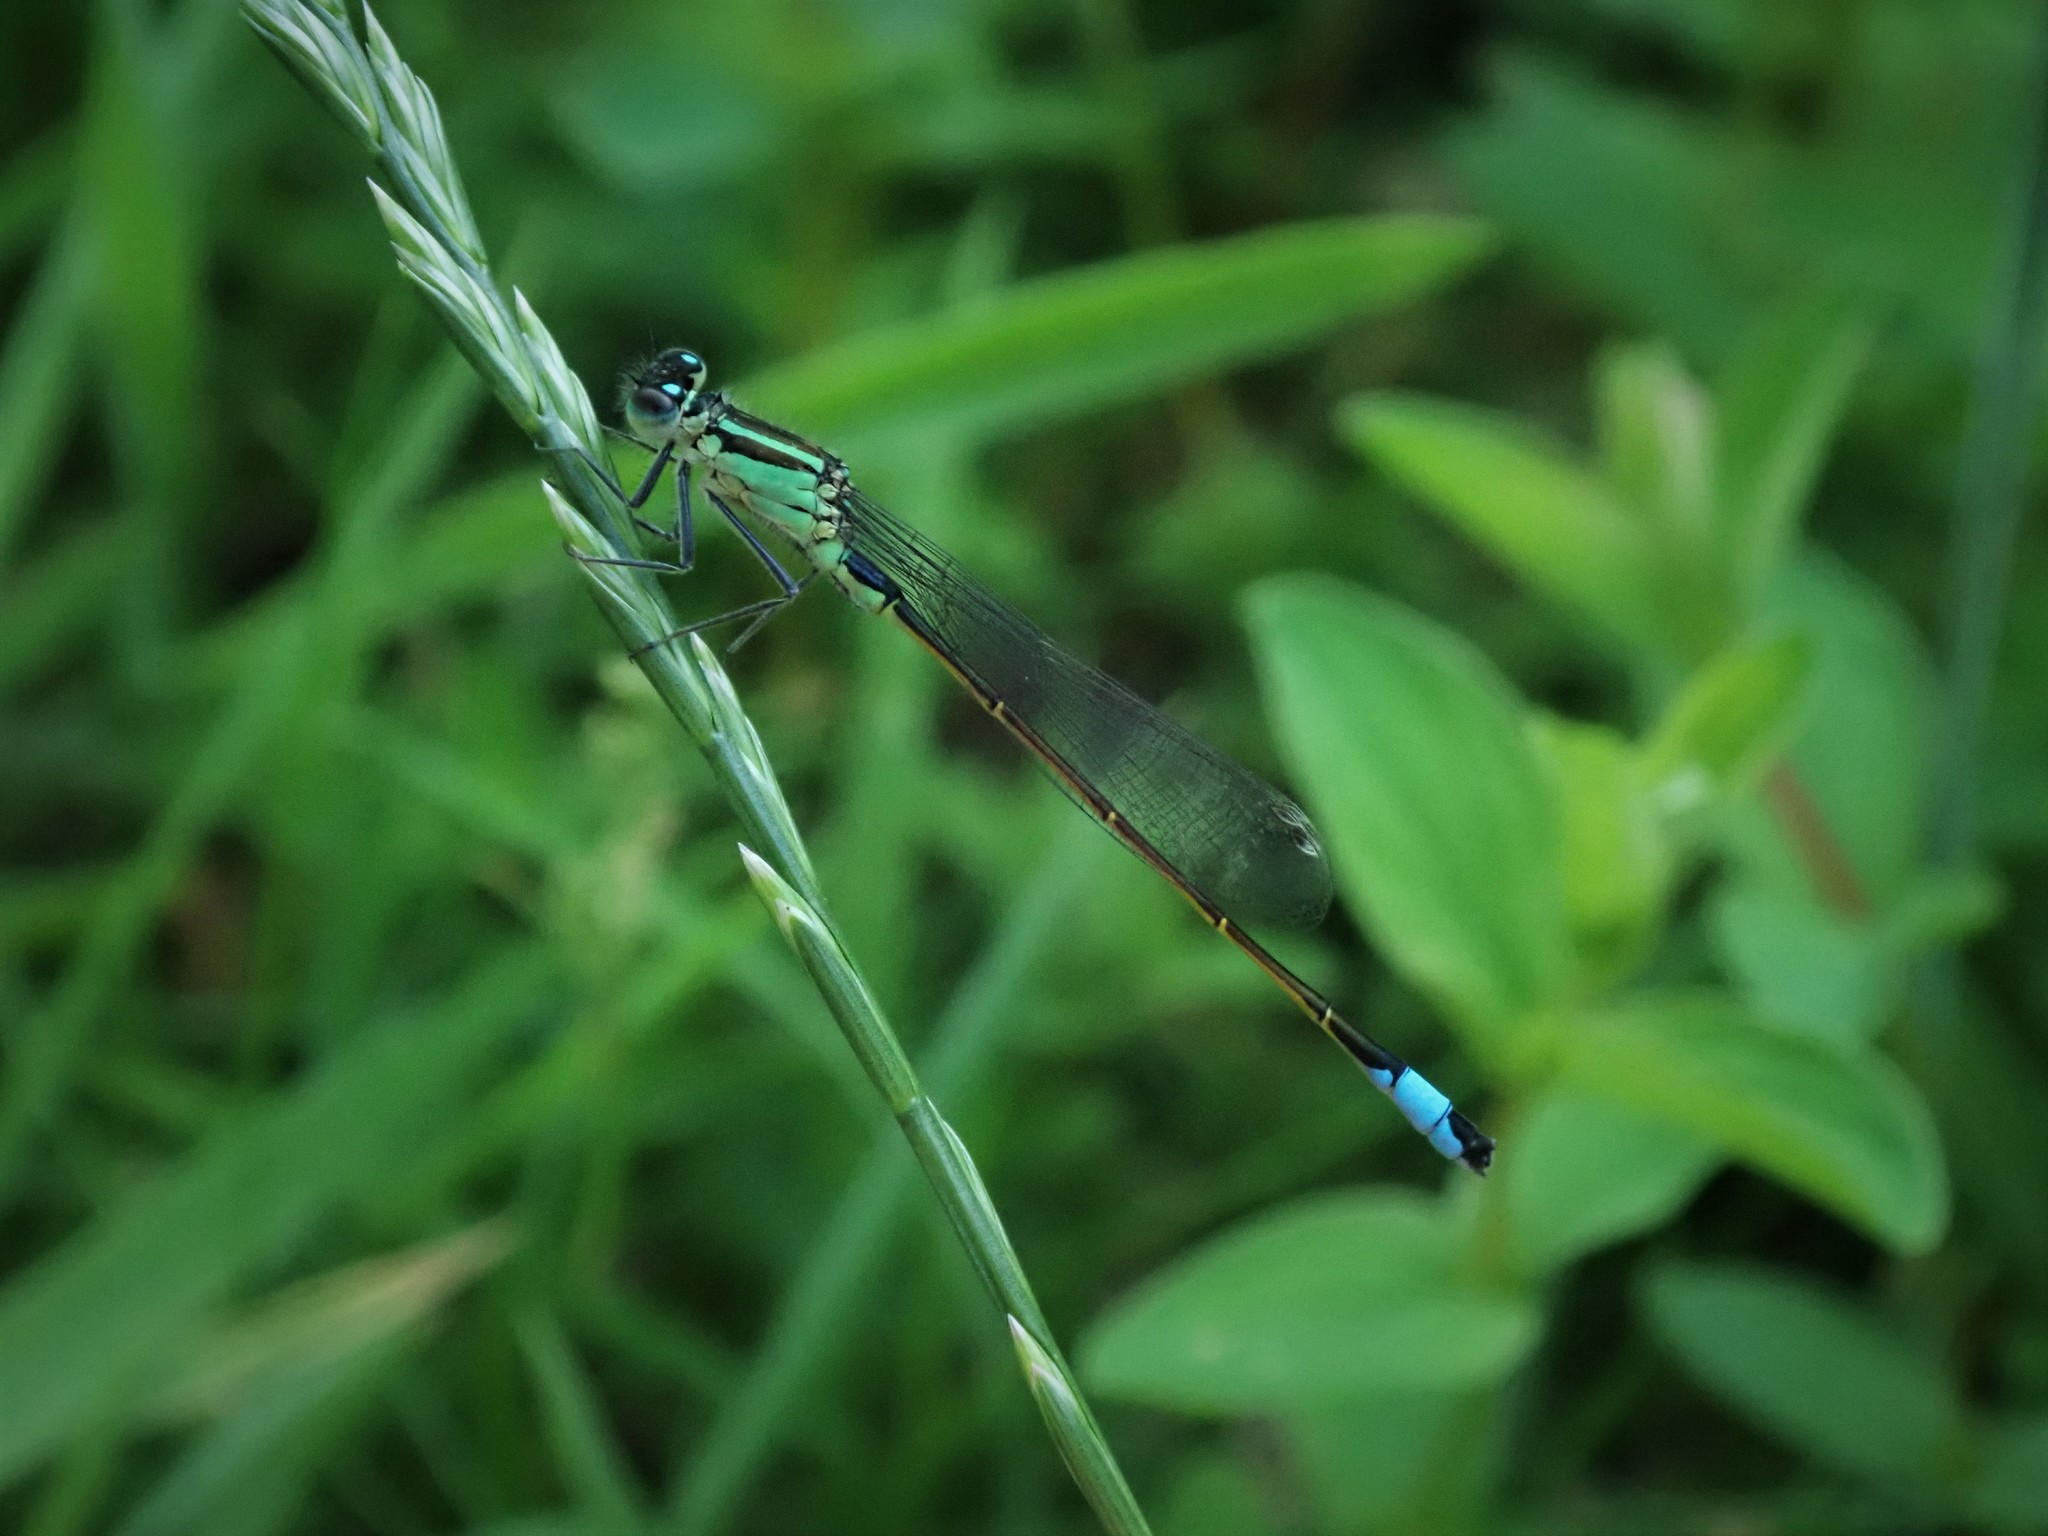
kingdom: Animalia
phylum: Arthropoda
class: Insecta
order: Odonata
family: Coenagrionidae
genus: Ischnura
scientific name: Ischnura elegans
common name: Blue-tailed damselfly
